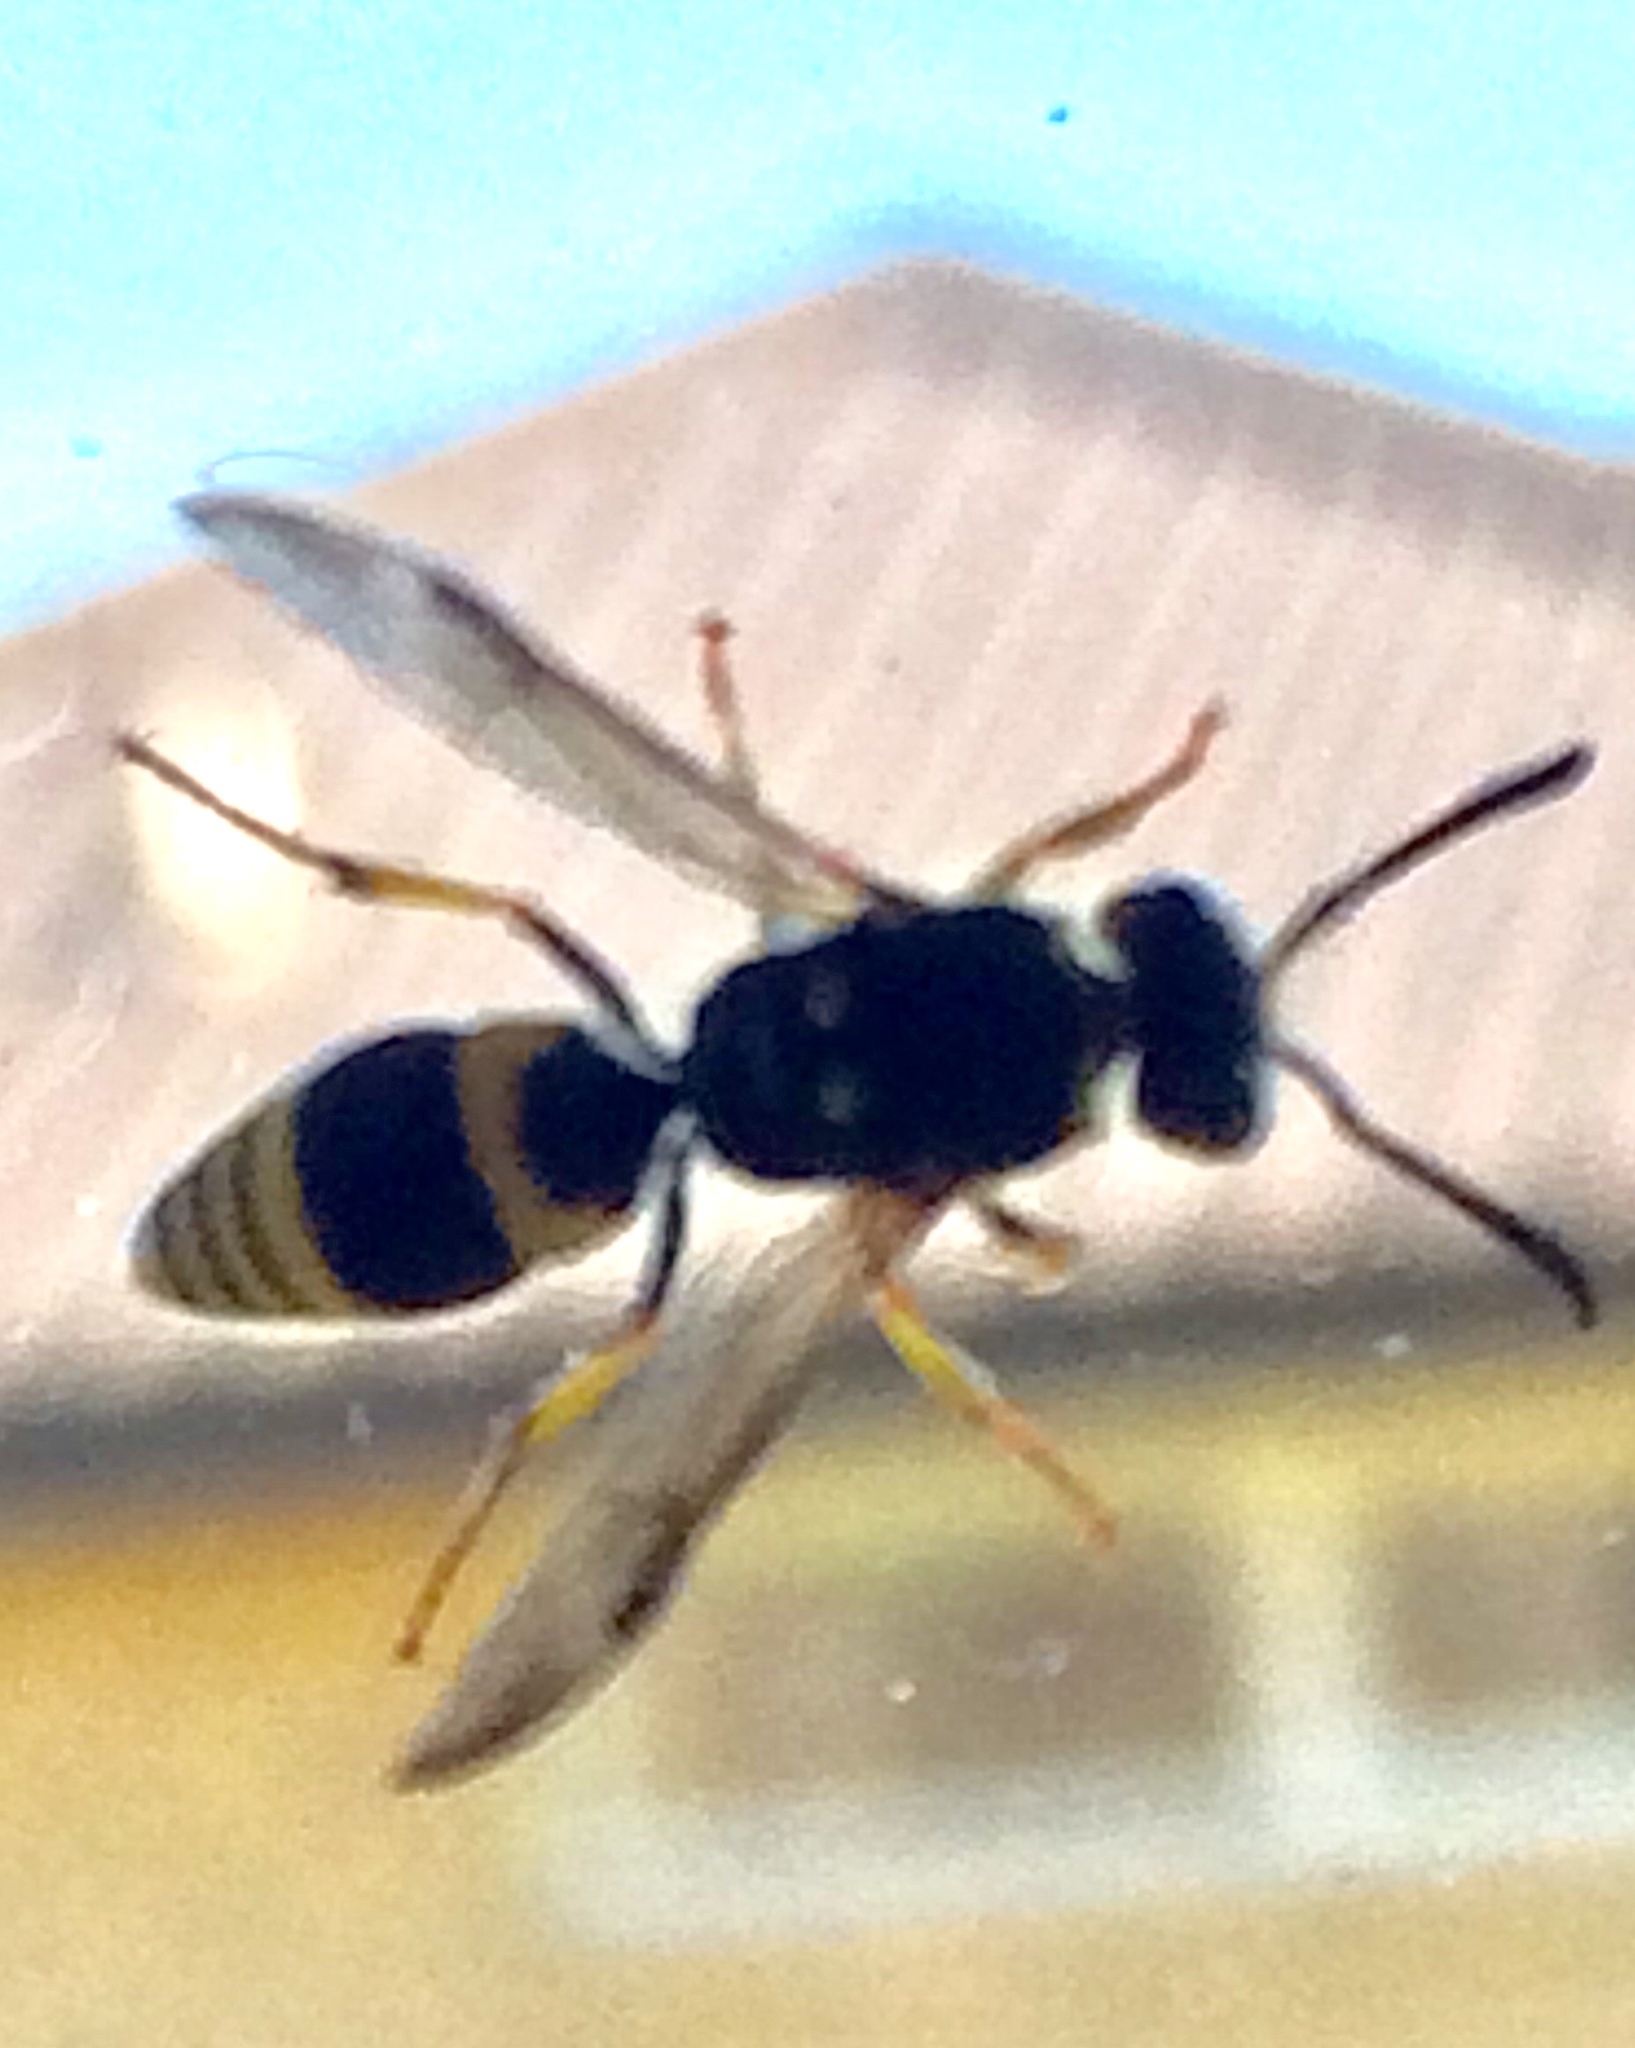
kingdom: Animalia
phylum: Arthropoda
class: Insecta
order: Hymenoptera
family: Vespidae
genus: Ancistrocerus
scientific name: Ancistrocerus gazella
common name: European tube wasp
